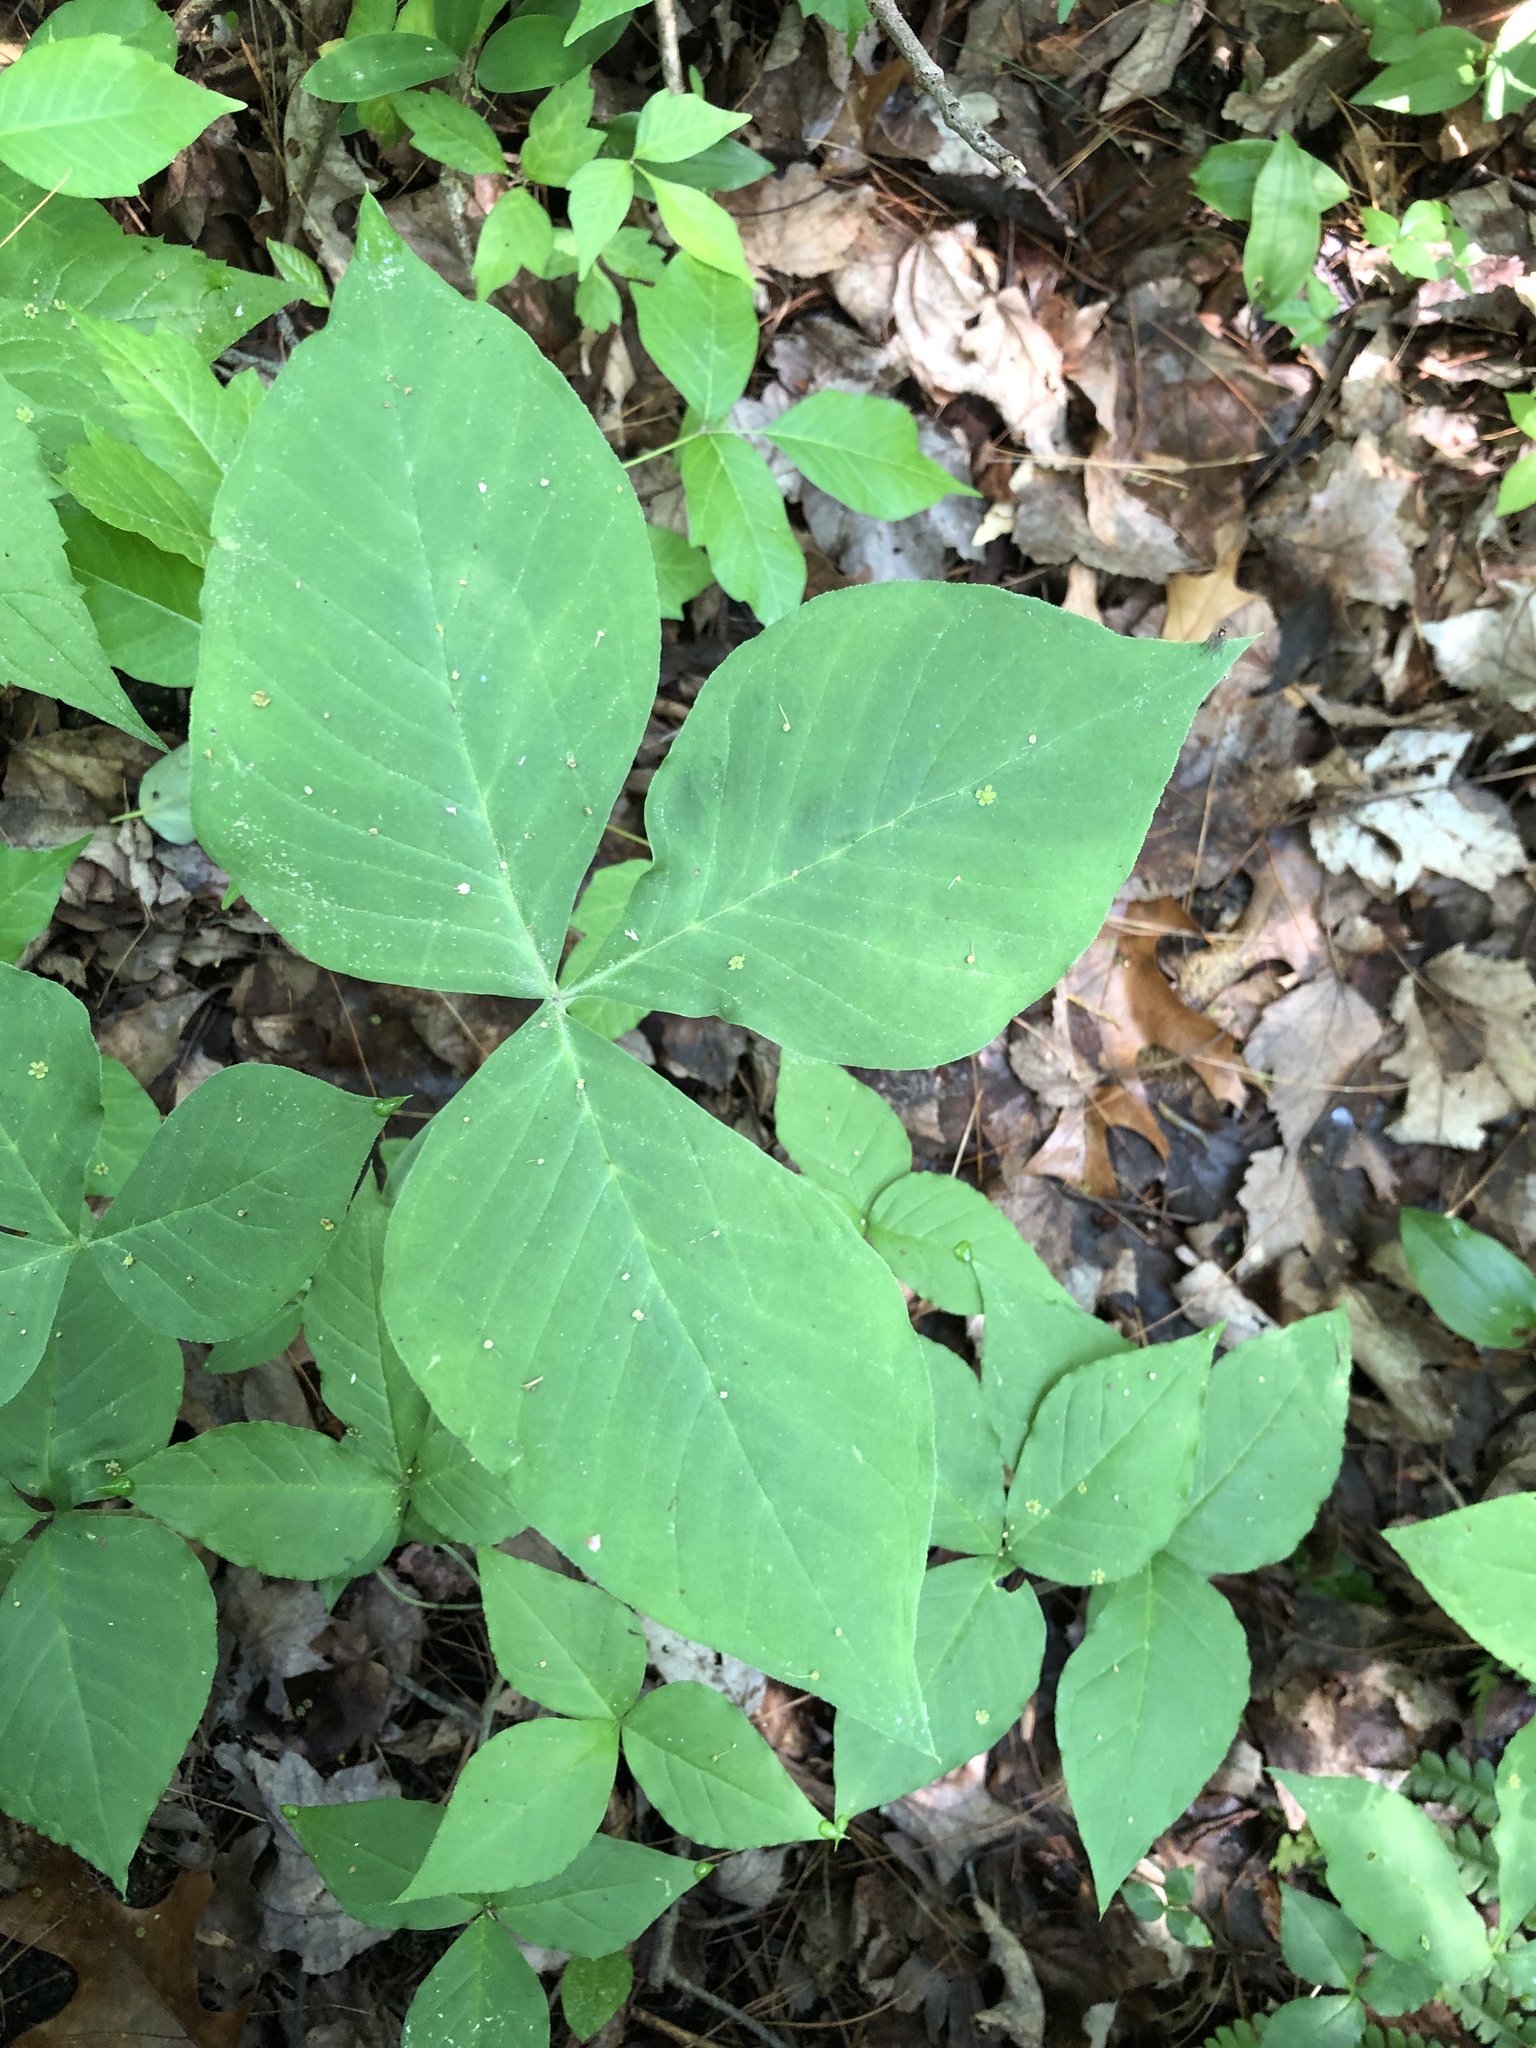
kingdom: Plantae
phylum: Tracheophyta
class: Liliopsida
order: Alismatales
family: Araceae
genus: Arisaema
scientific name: Arisaema triphyllum
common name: Jack-in-the-pulpit
